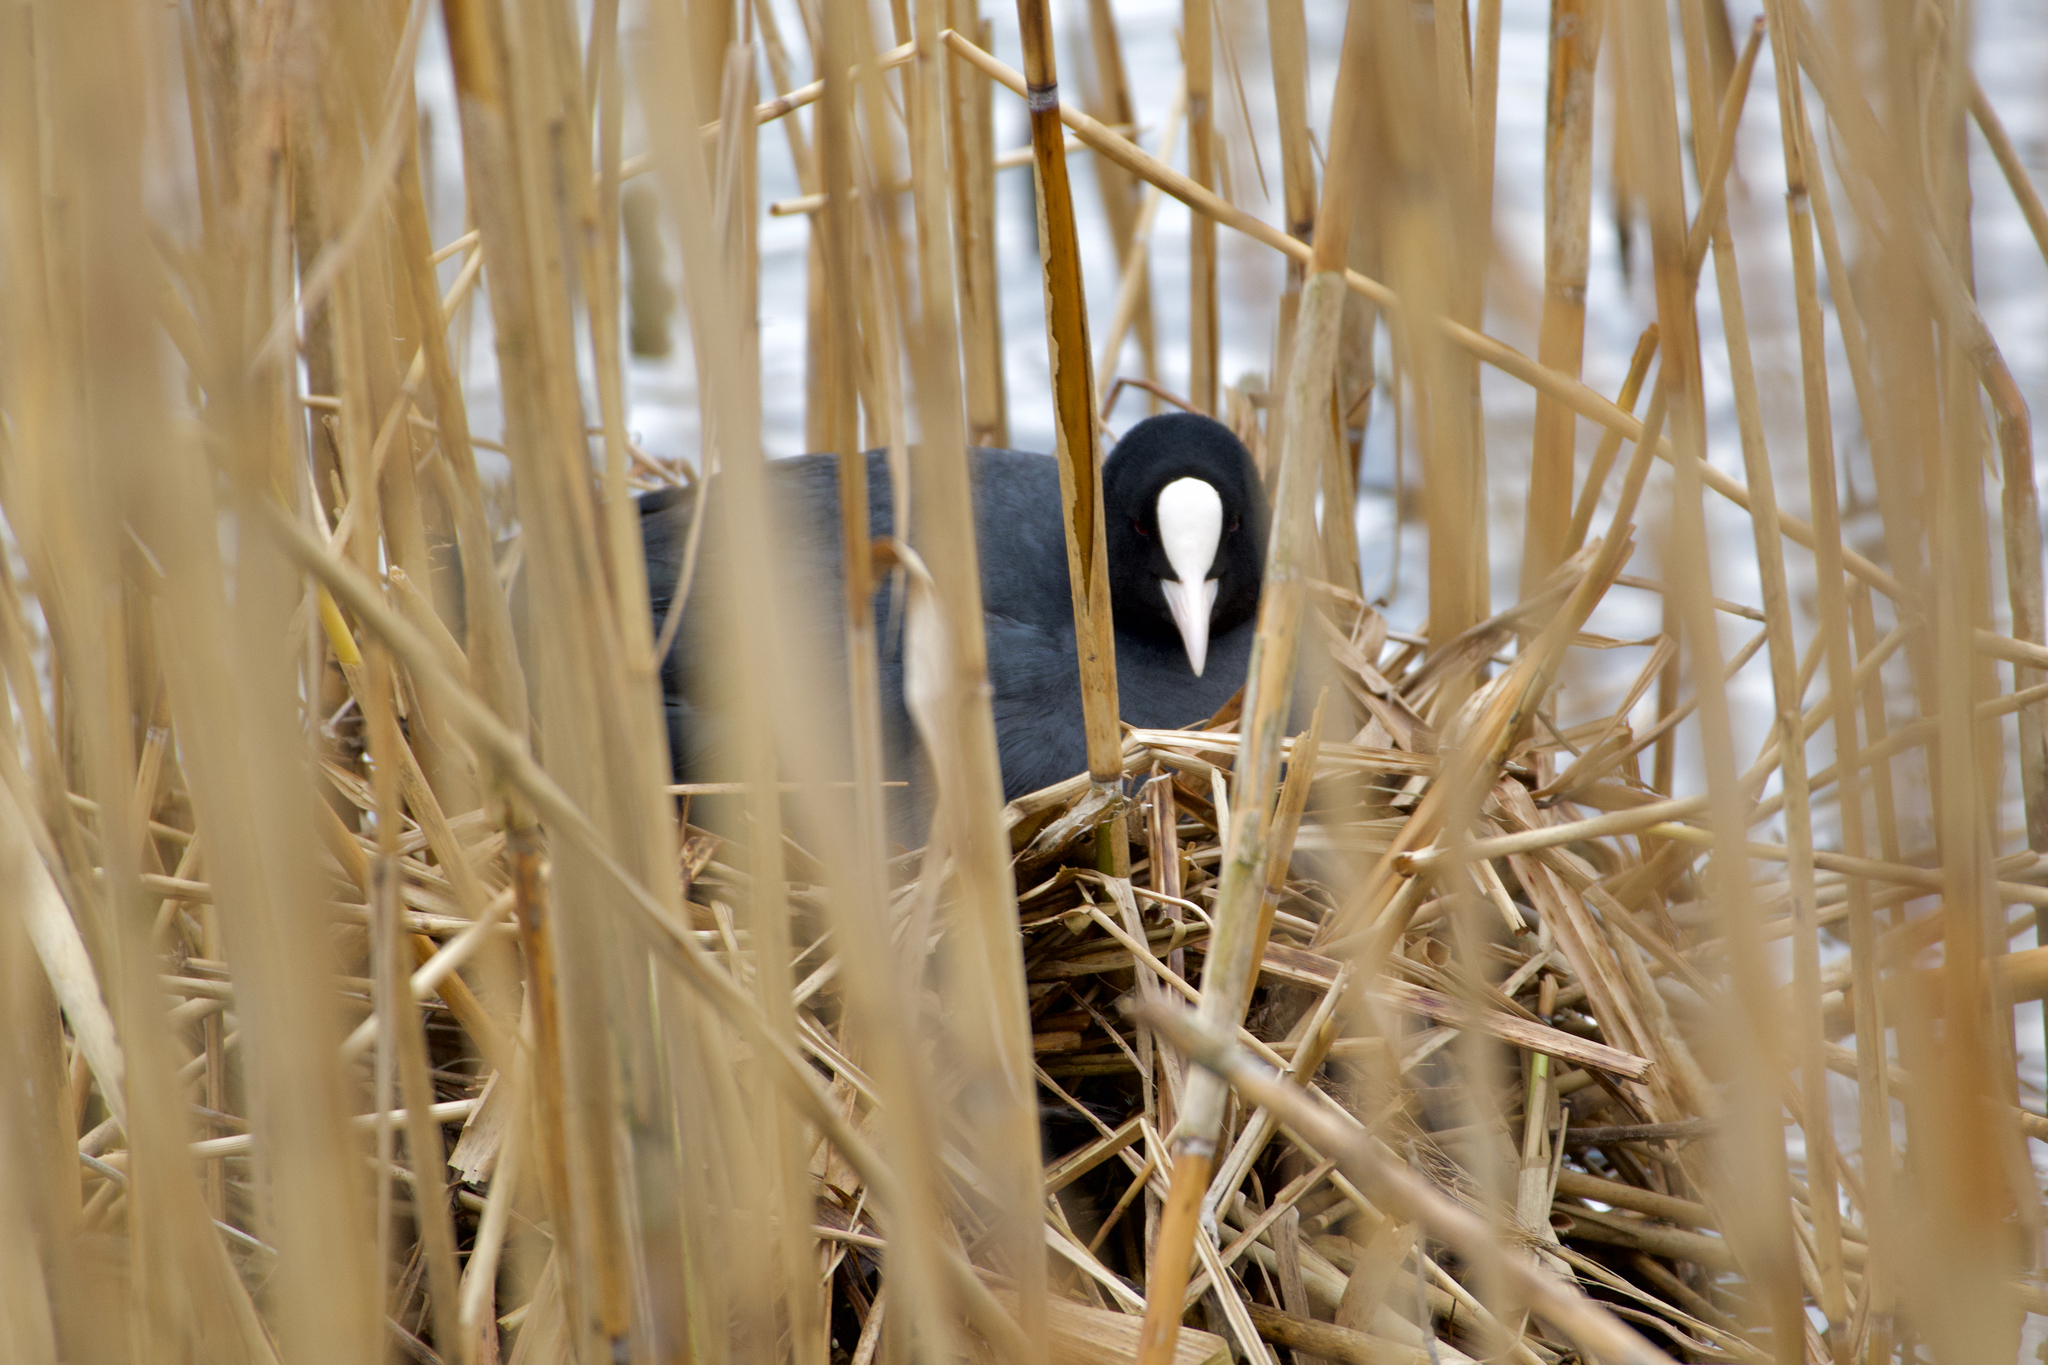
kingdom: Animalia
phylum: Chordata
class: Aves
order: Gruiformes
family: Rallidae
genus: Fulica
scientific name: Fulica atra
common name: Eurasian coot
